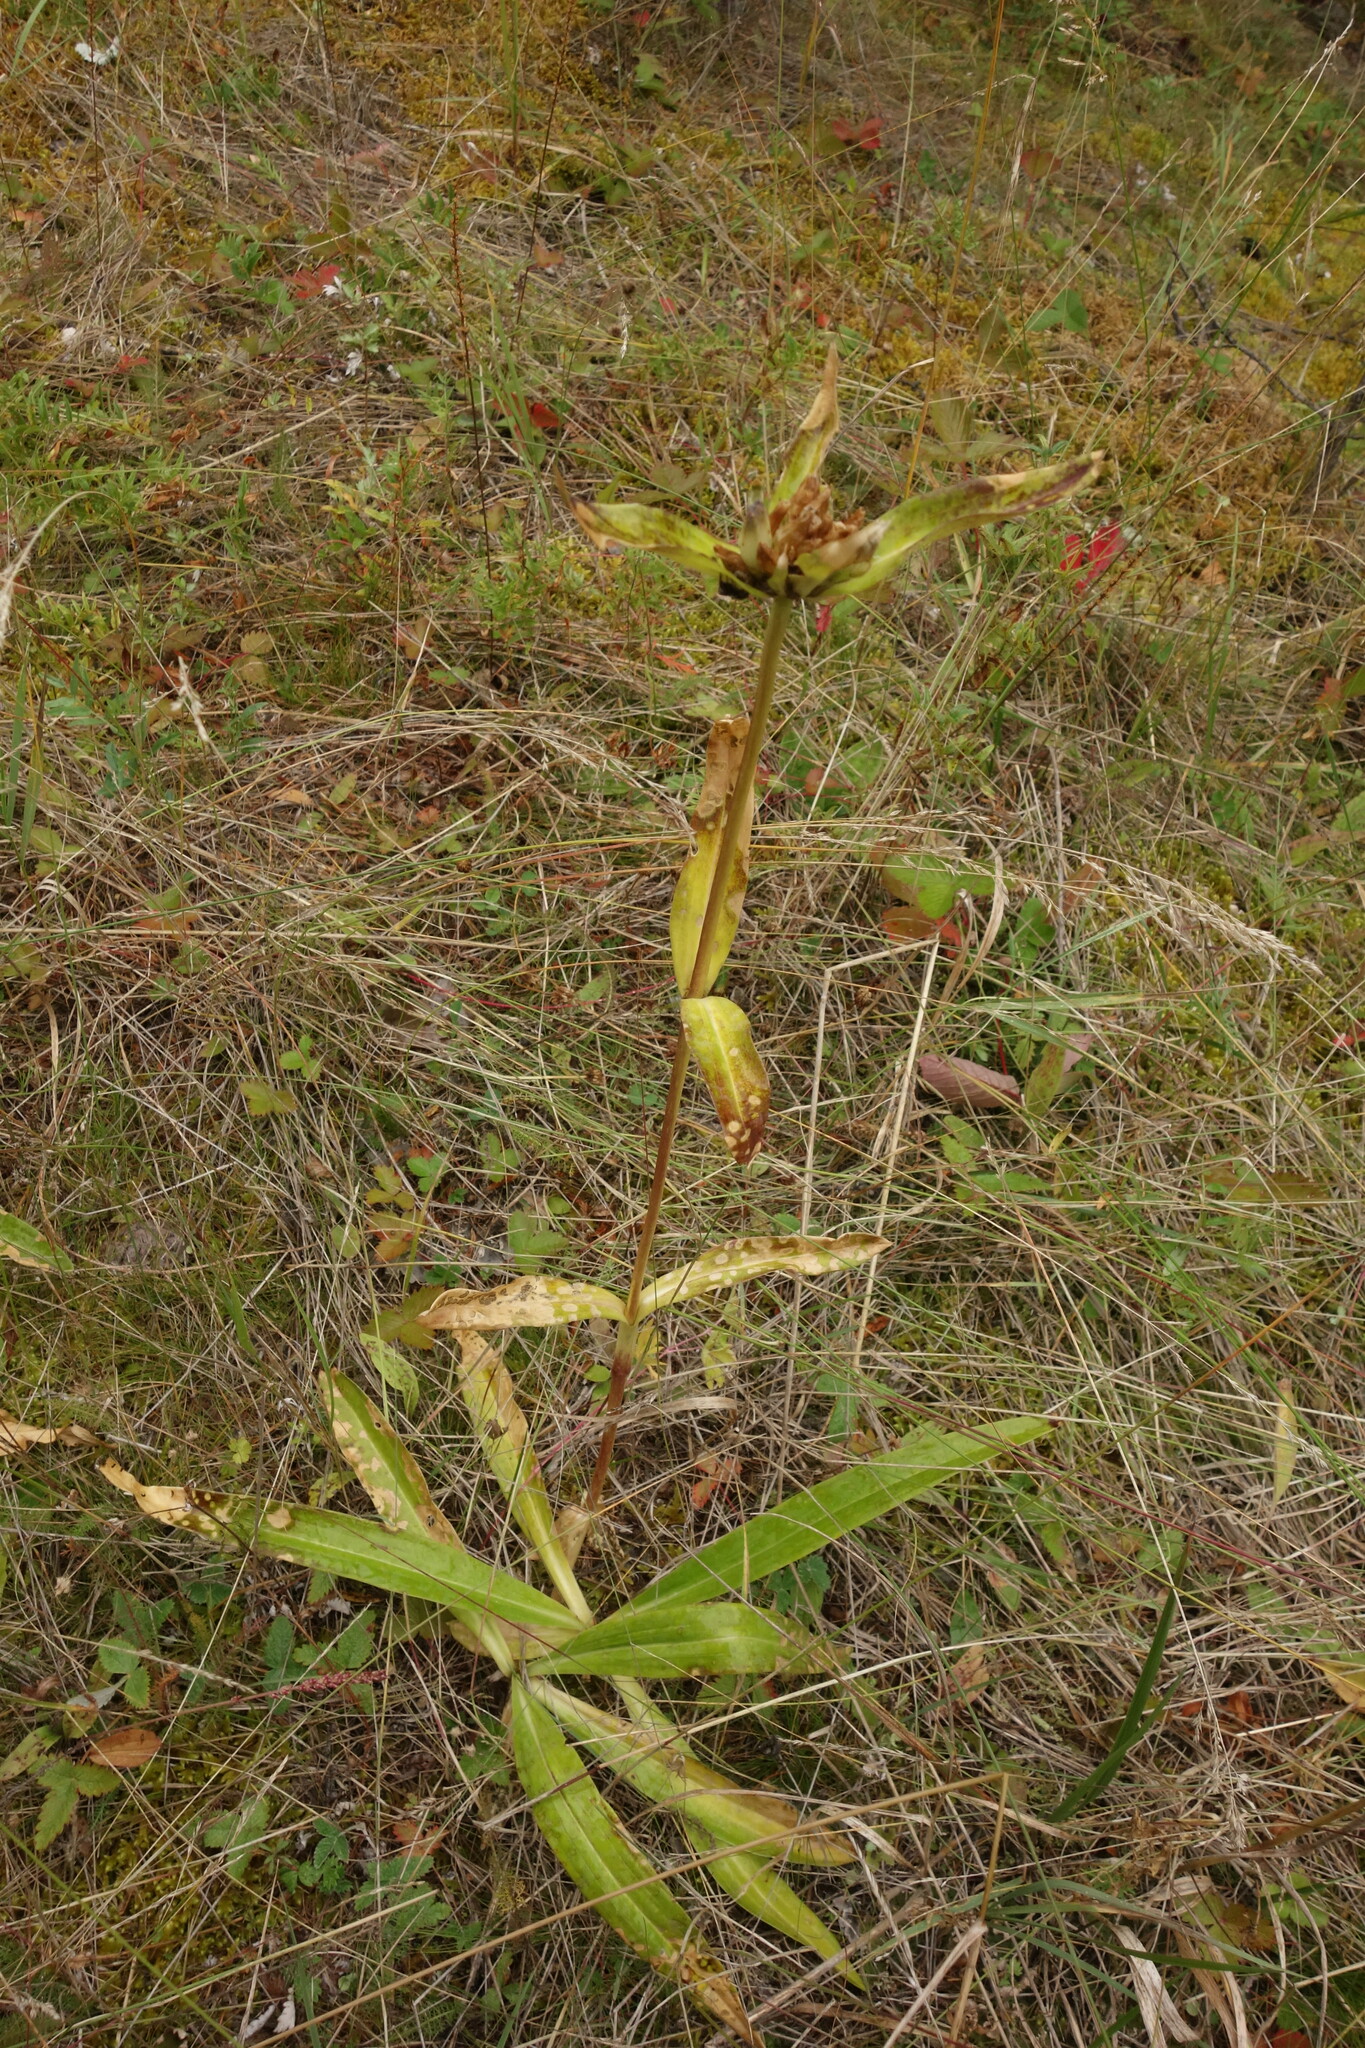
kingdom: Plantae
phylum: Tracheophyta
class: Magnoliopsida
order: Gentianales
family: Gentianaceae
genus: Gentiana
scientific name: Gentiana macrophylla
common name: Large-leaf gentian
